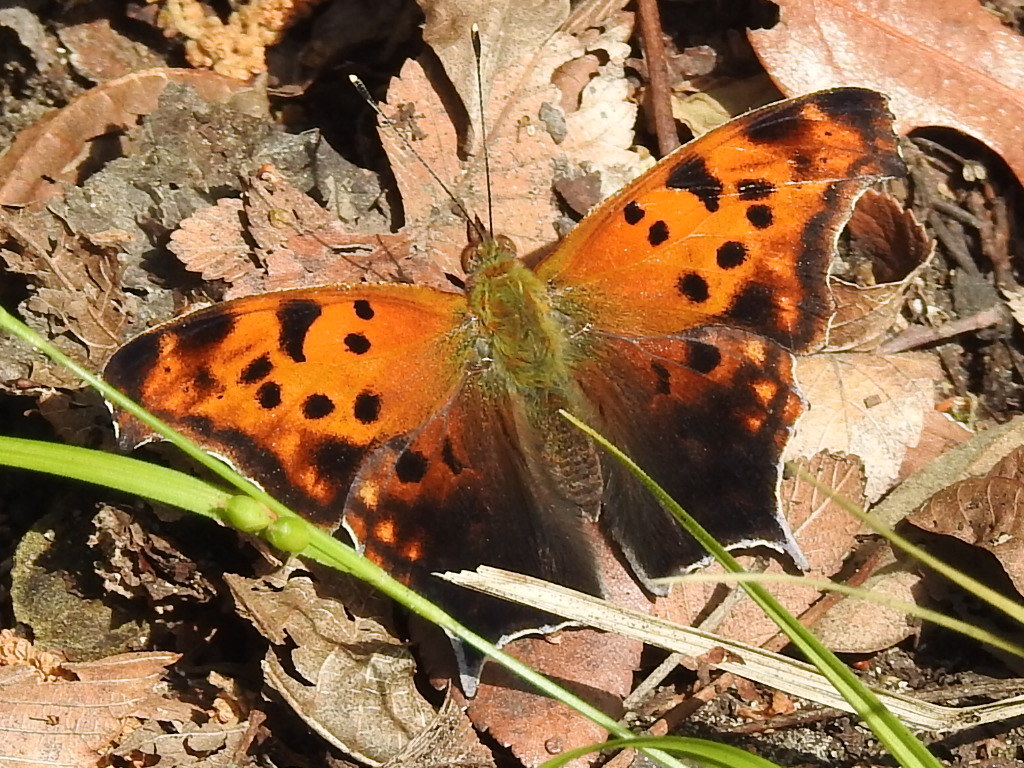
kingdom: Animalia
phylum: Arthropoda
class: Insecta
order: Lepidoptera
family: Nymphalidae
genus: Polygonia
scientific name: Polygonia interrogationis
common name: Question mark
